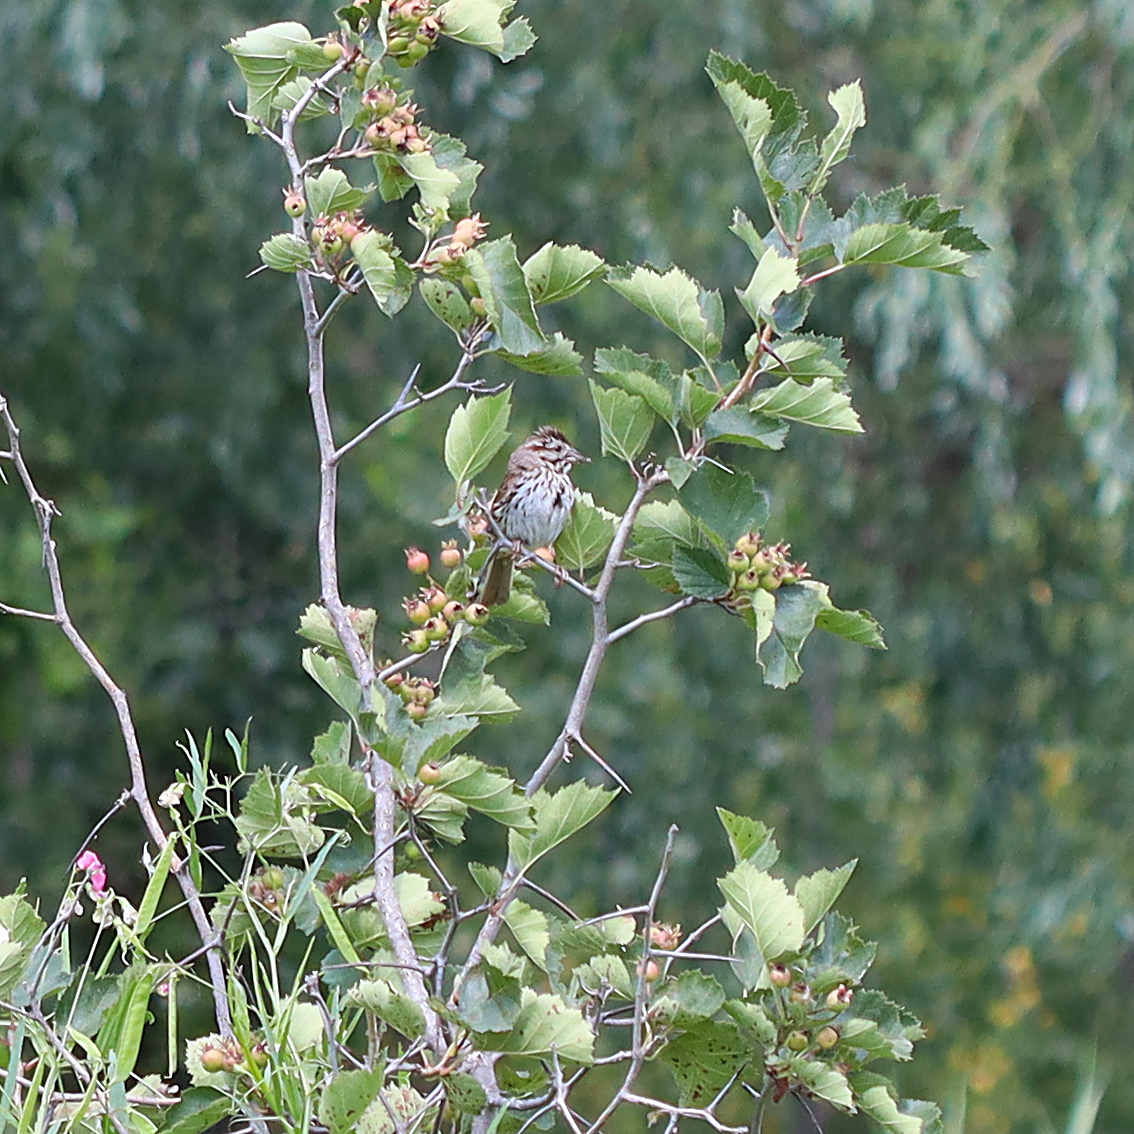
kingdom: Animalia
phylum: Chordata
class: Aves
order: Passeriformes
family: Passerellidae
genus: Melospiza
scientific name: Melospiza melodia
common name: Song sparrow
